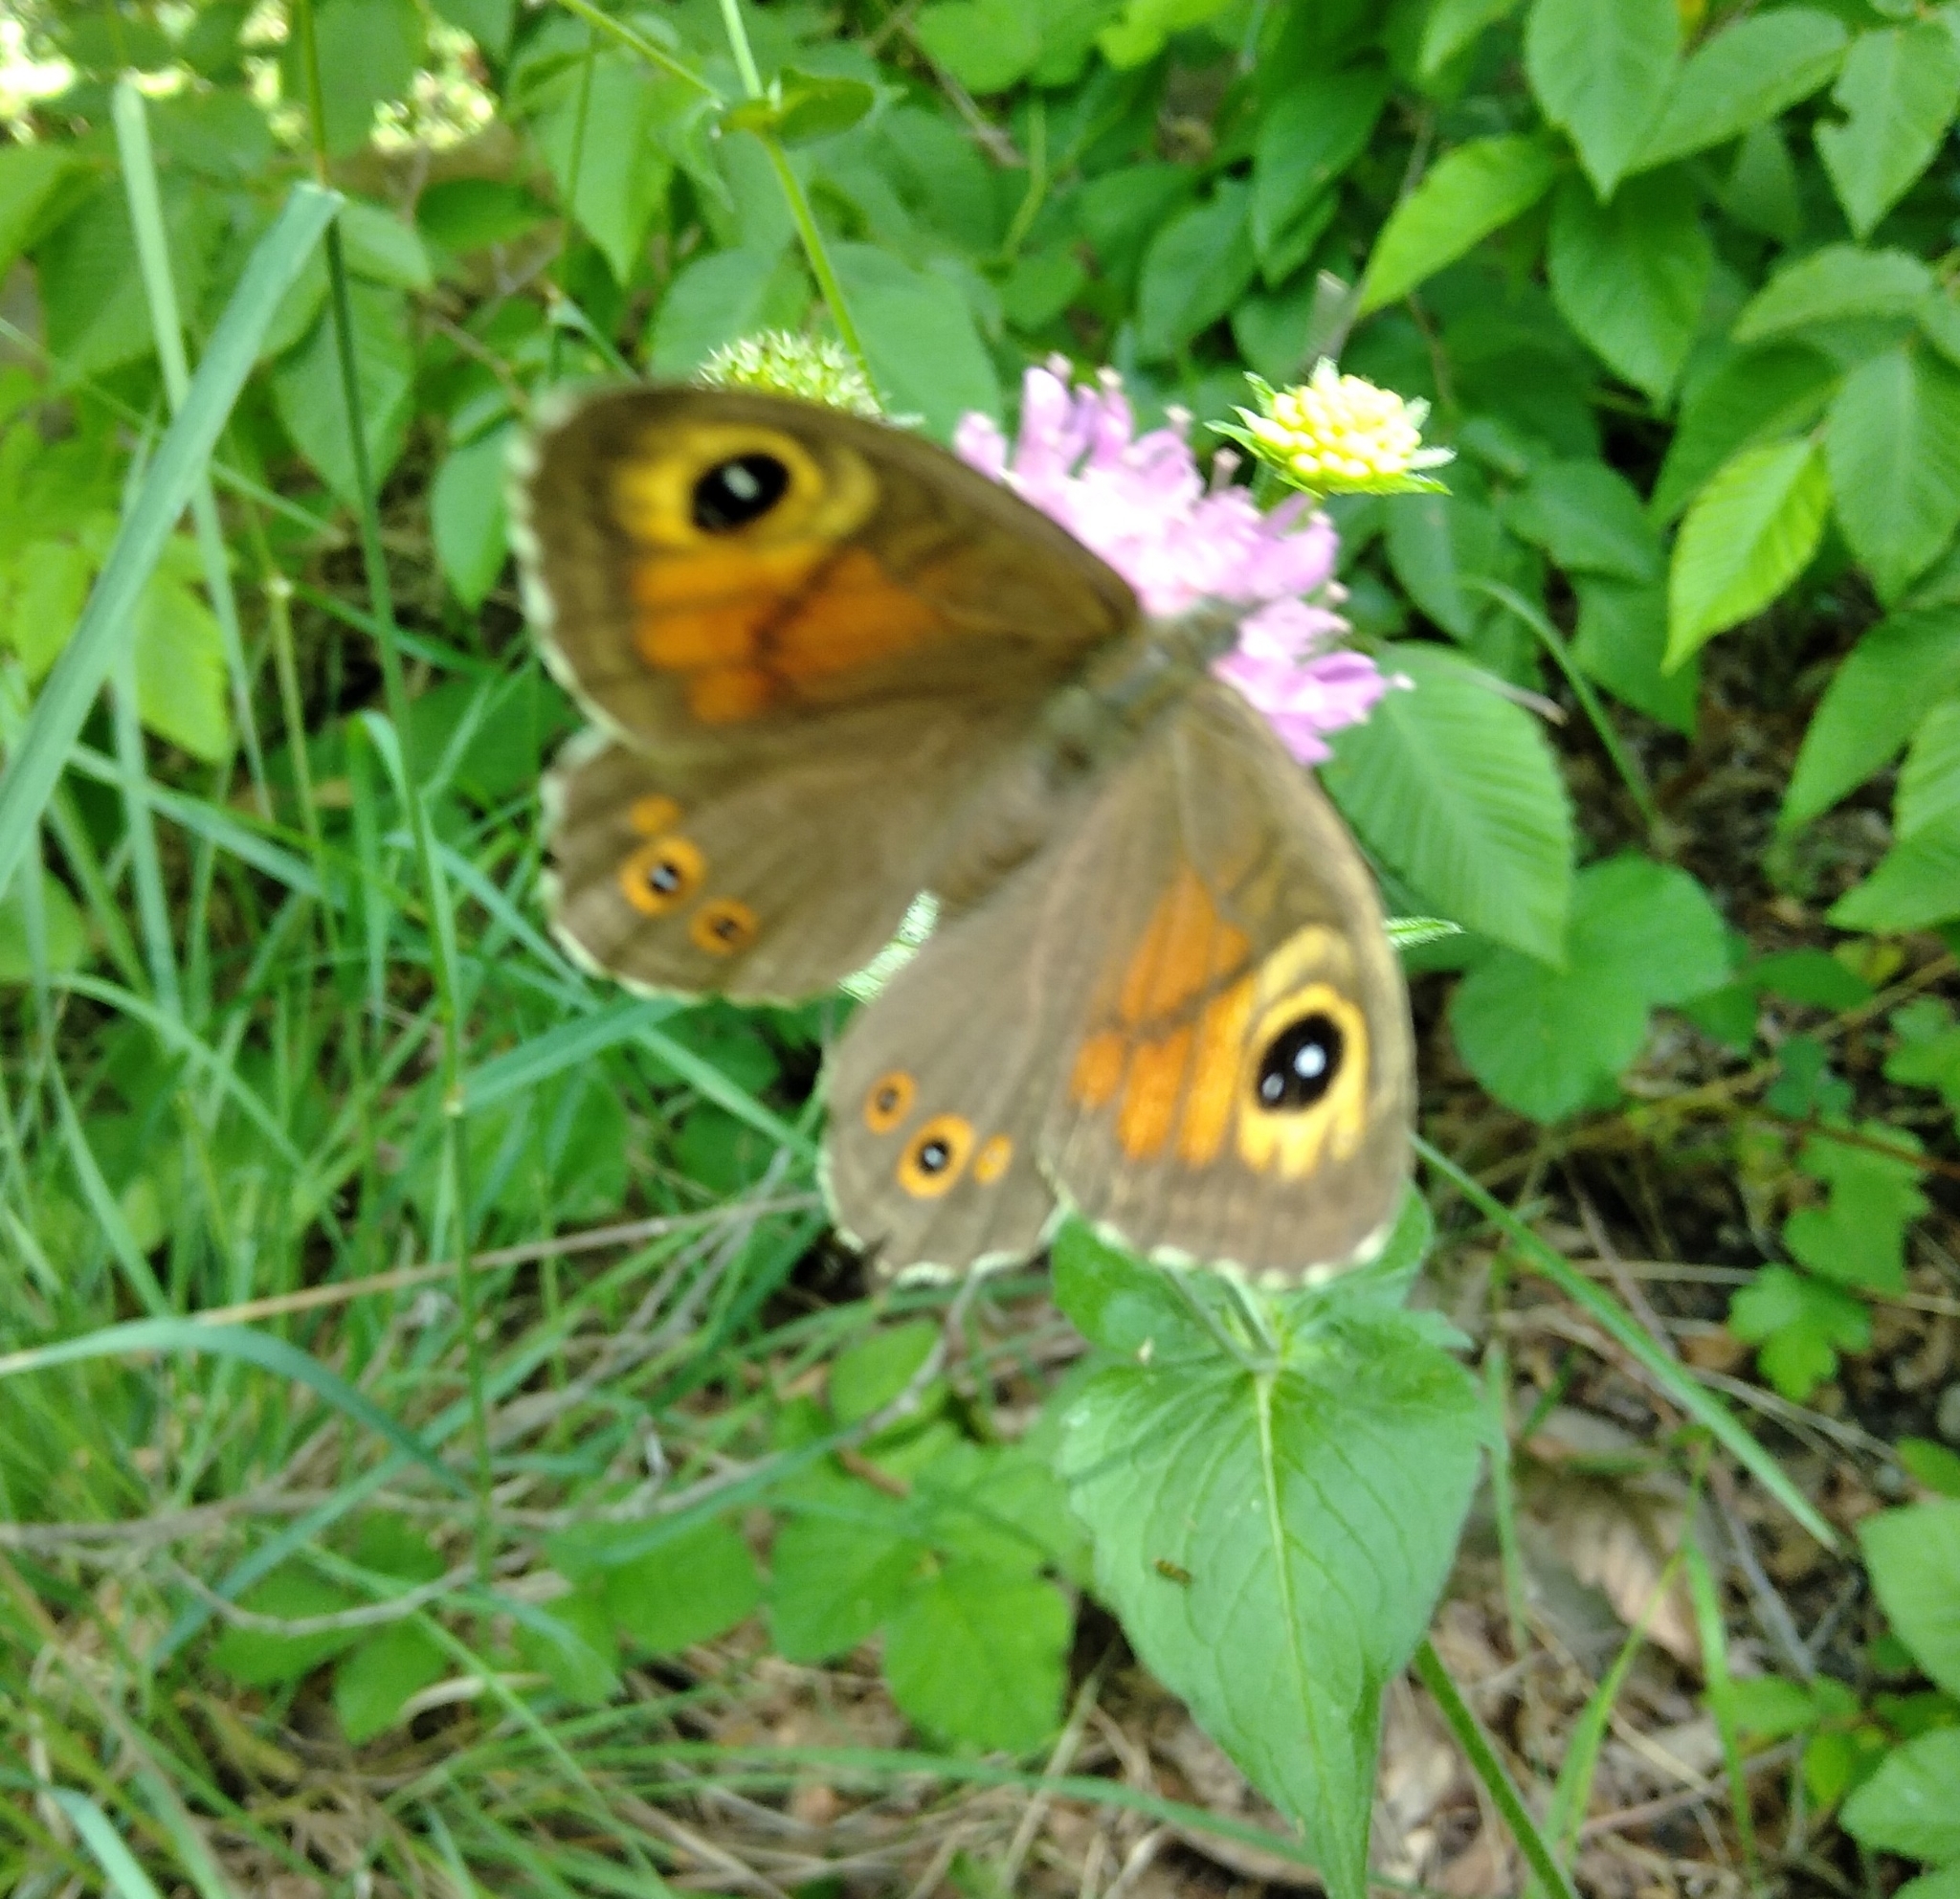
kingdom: Animalia
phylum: Arthropoda
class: Insecta
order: Lepidoptera
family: Nymphalidae
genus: Pararge
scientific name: Pararge Lasiommata maera
